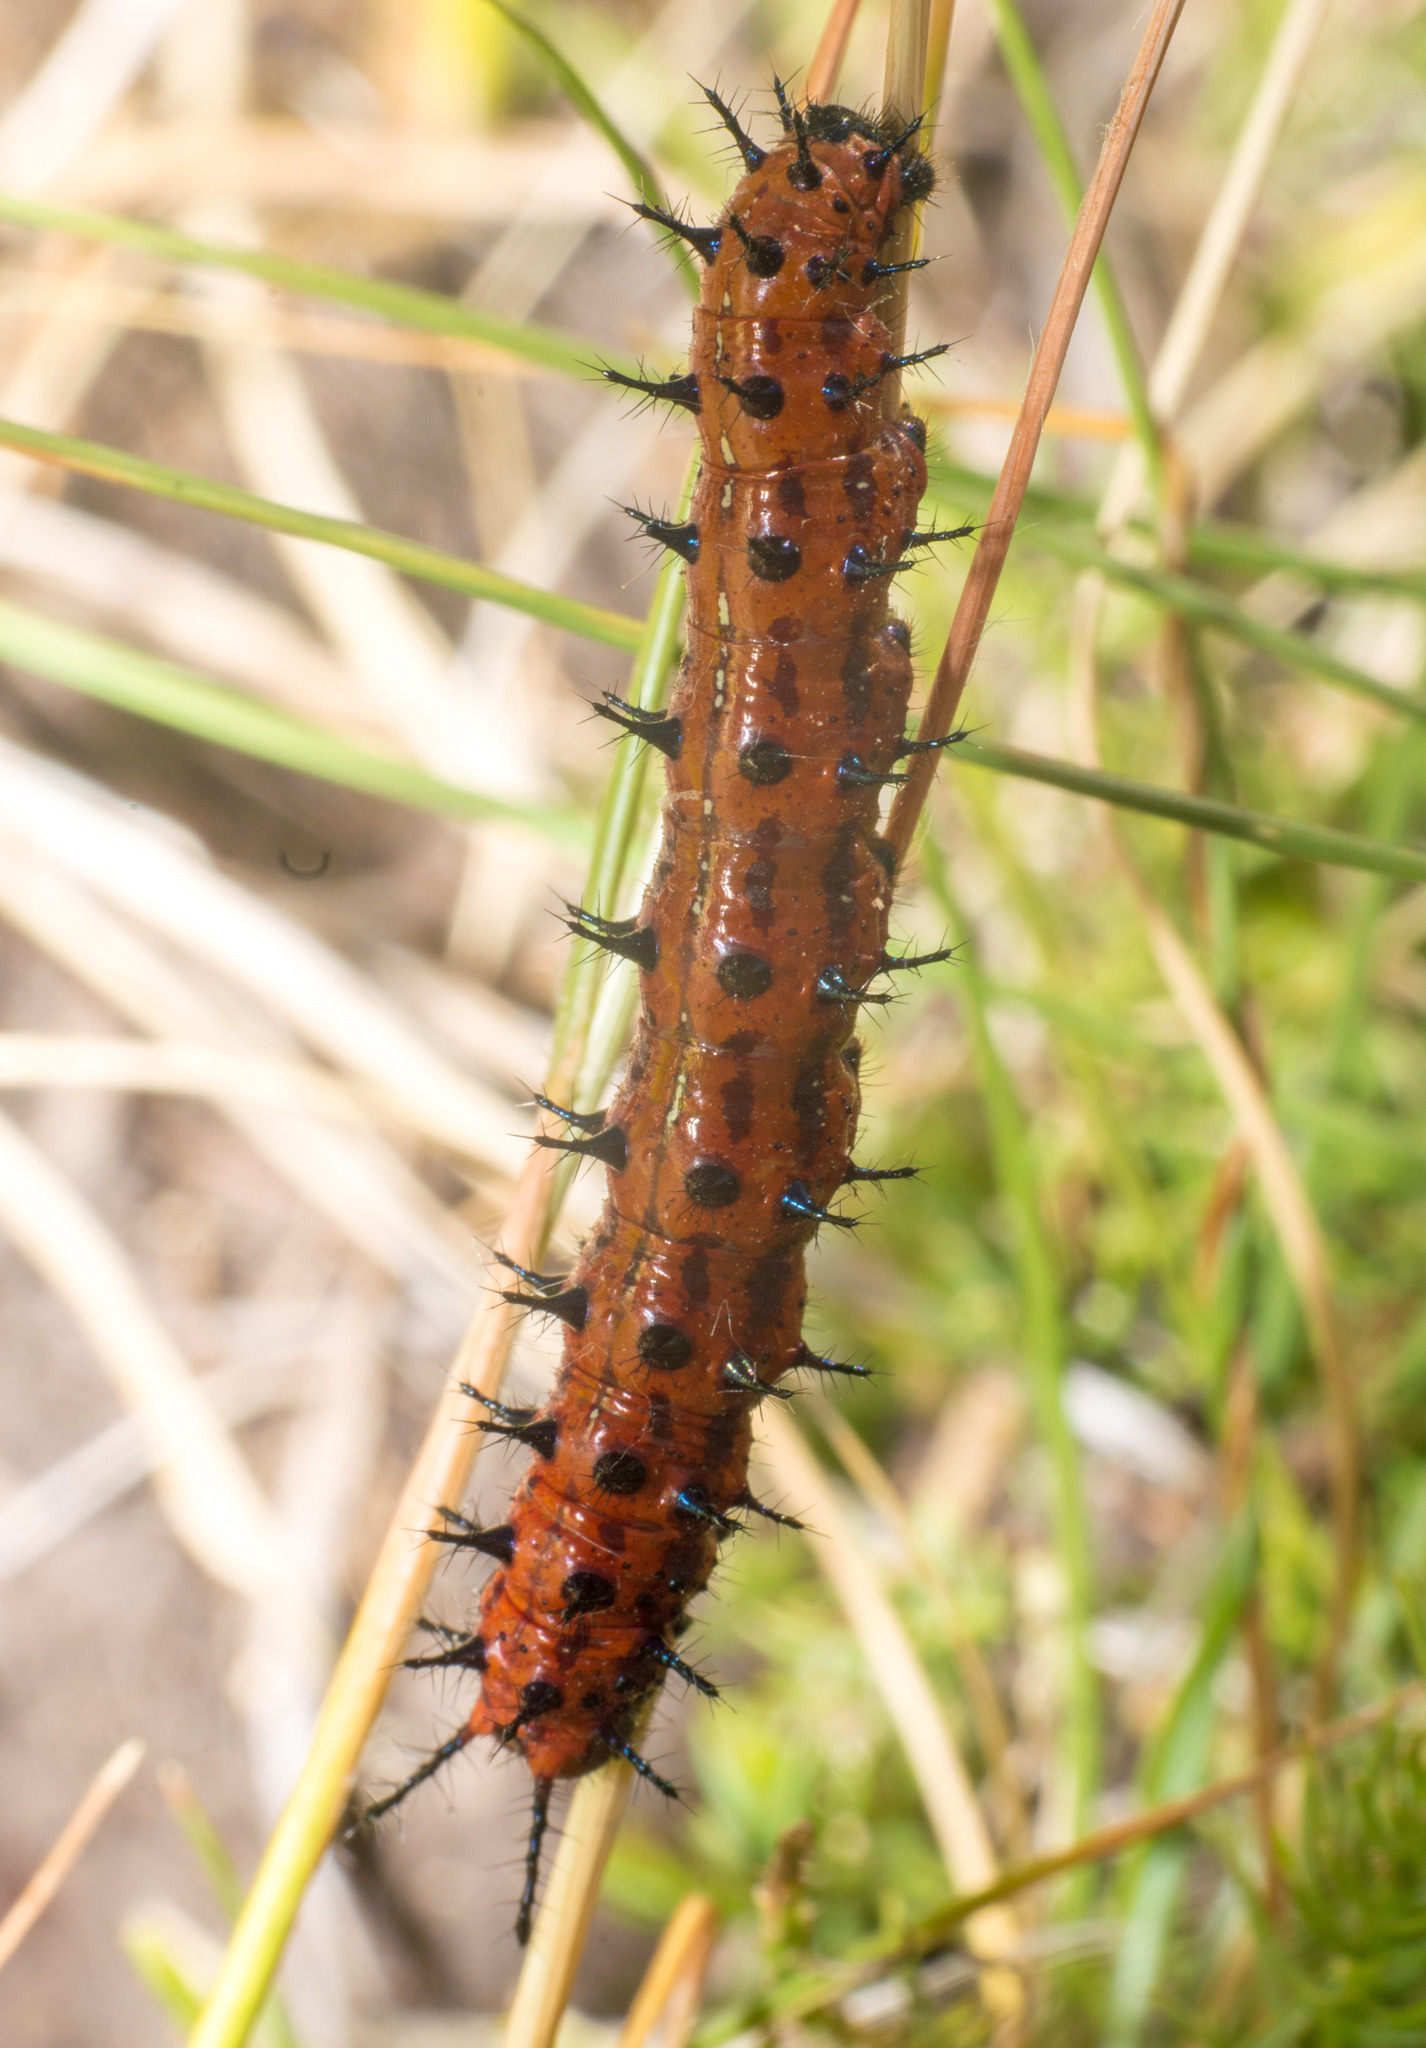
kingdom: Animalia
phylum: Arthropoda
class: Insecta
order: Lepidoptera
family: Nymphalidae
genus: Euptoieta
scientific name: Euptoieta hortensia
